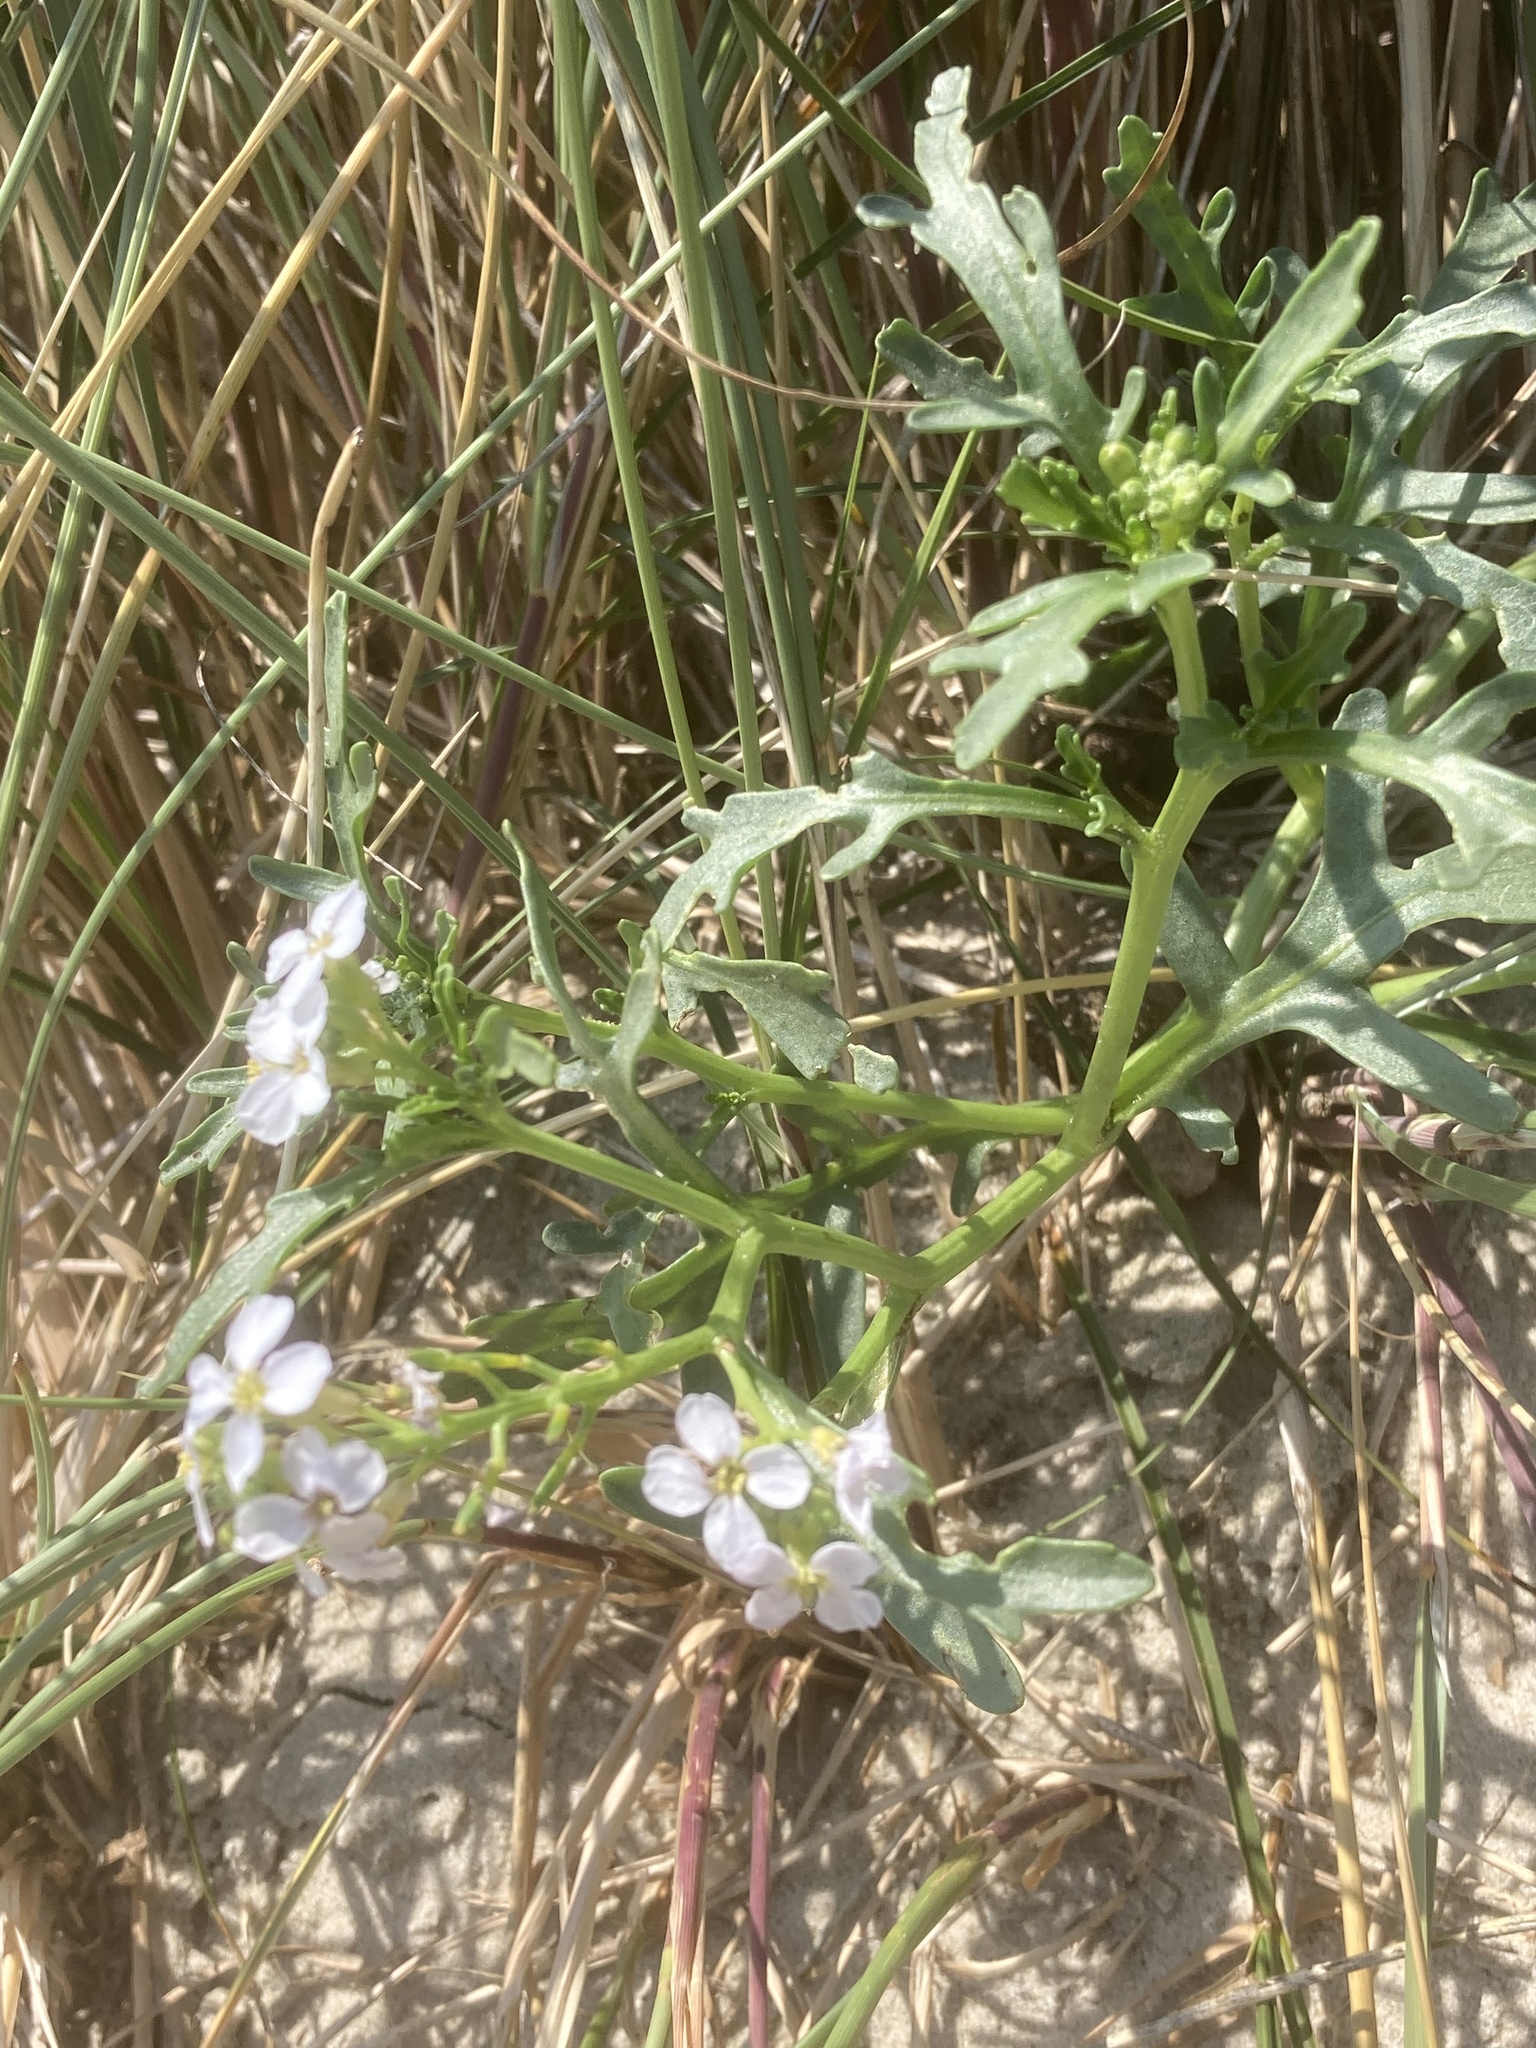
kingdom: Plantae
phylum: Tracheophyta
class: Magnoliopsida
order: Brassicales
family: Brassicaceae
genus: Cakile
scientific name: Cakile maritima
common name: Sea rocket
